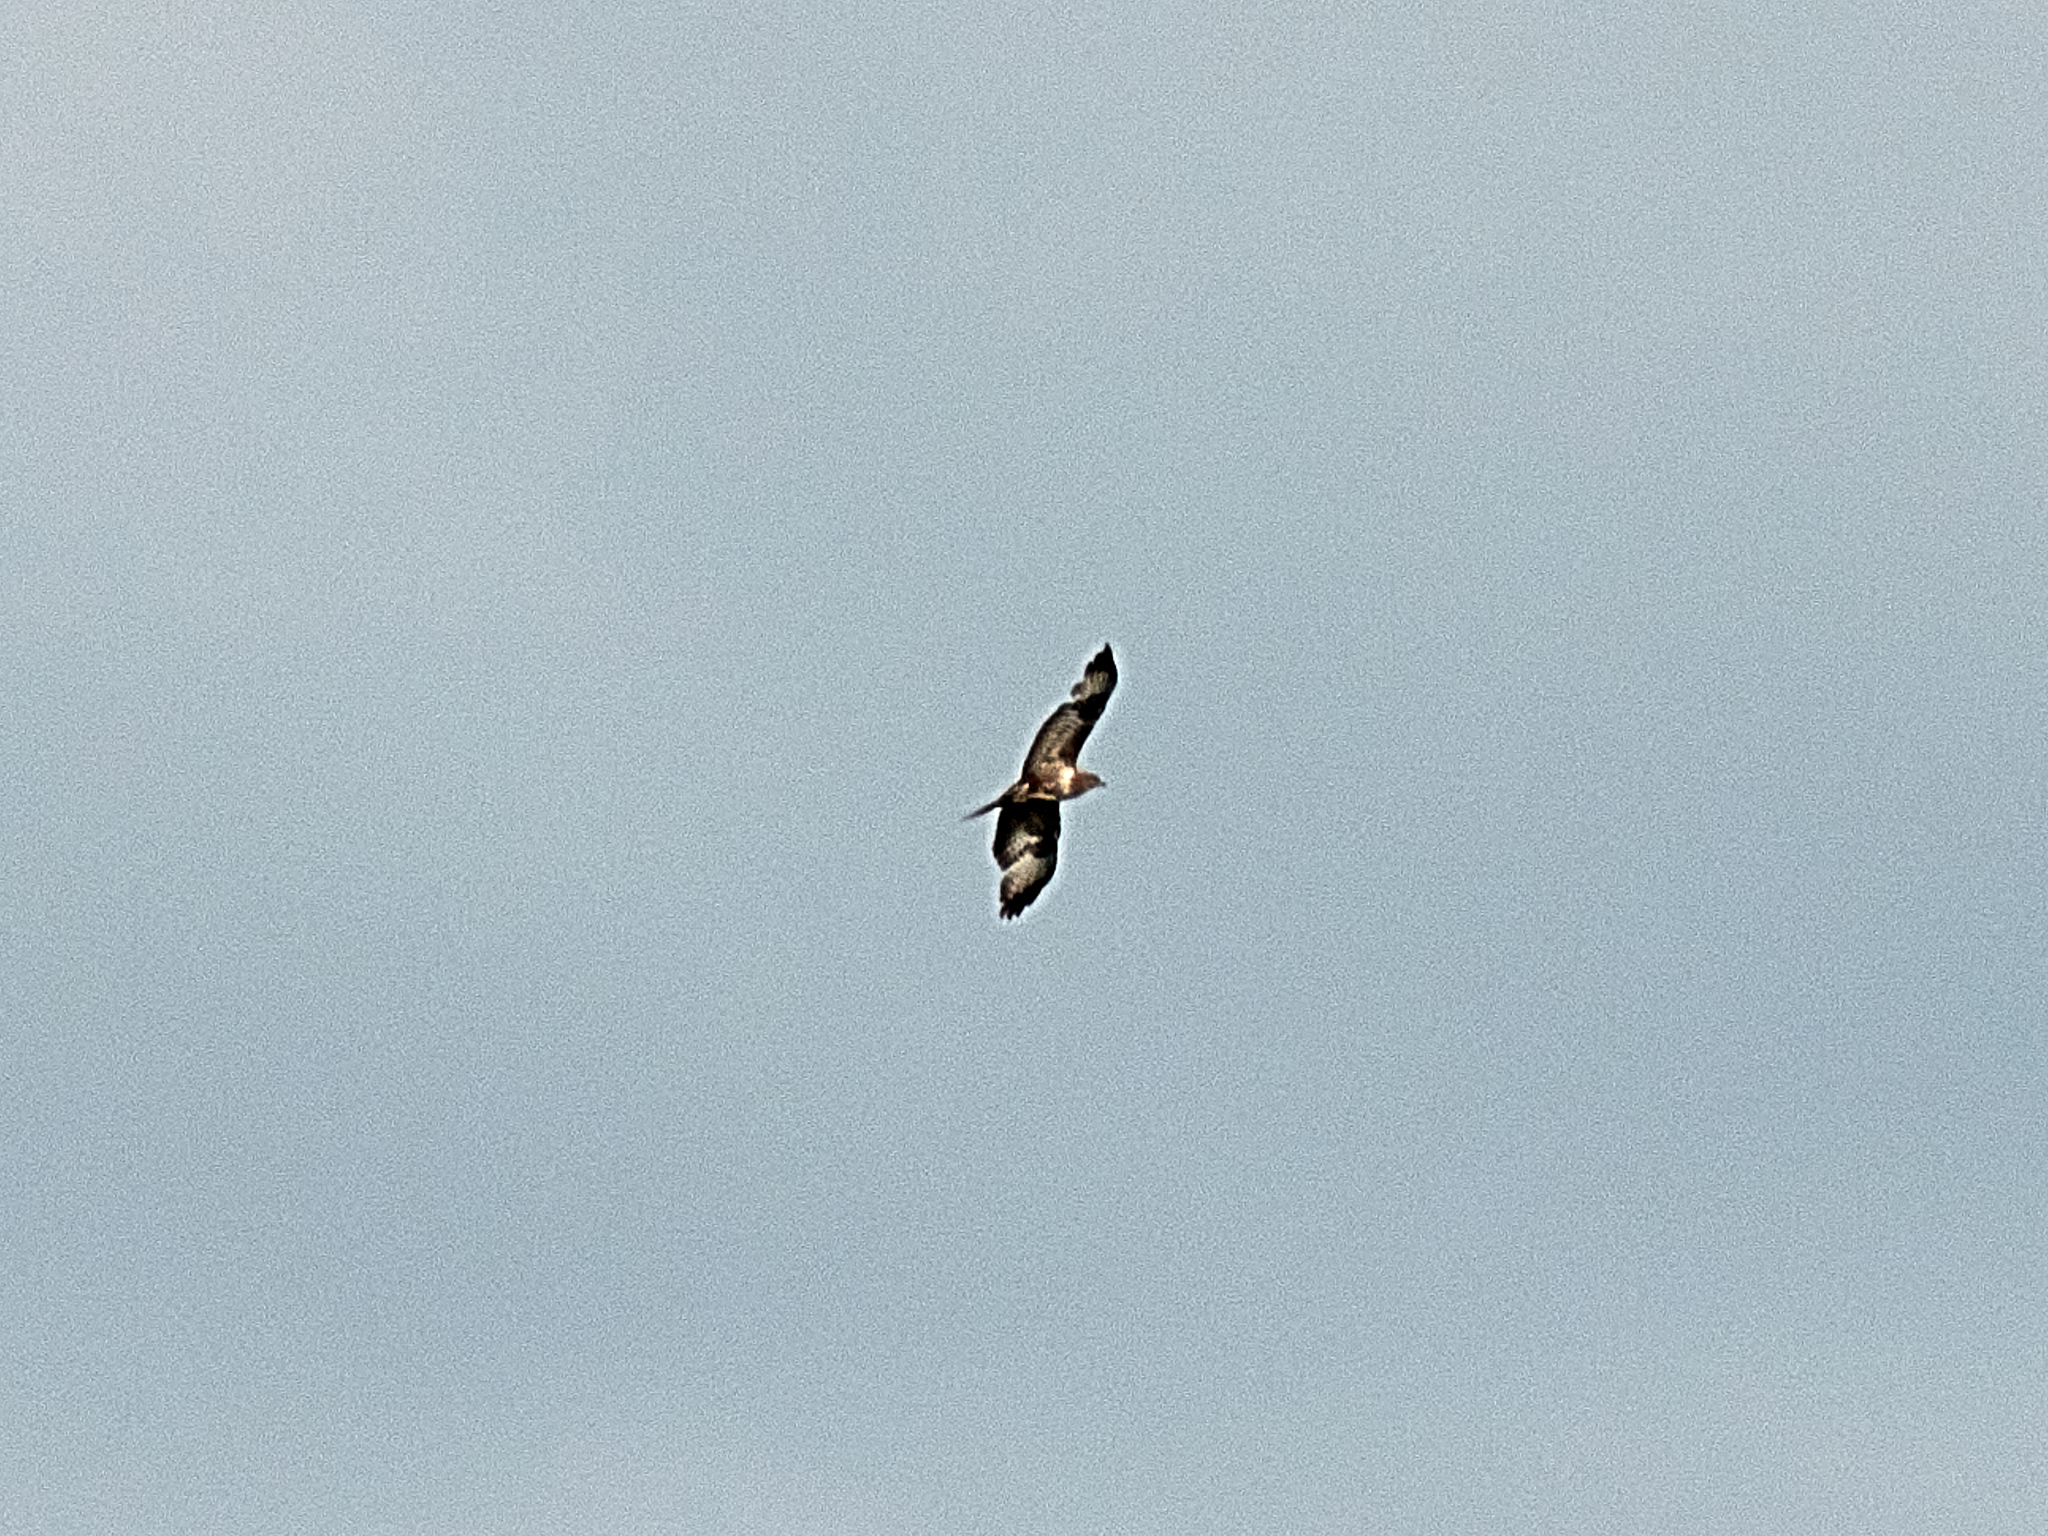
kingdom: Animalia
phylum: Chordata
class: Aves
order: Accipitriformes
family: Accipitridae
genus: Buteo
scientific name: Buteo buteo
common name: Common buzzard
